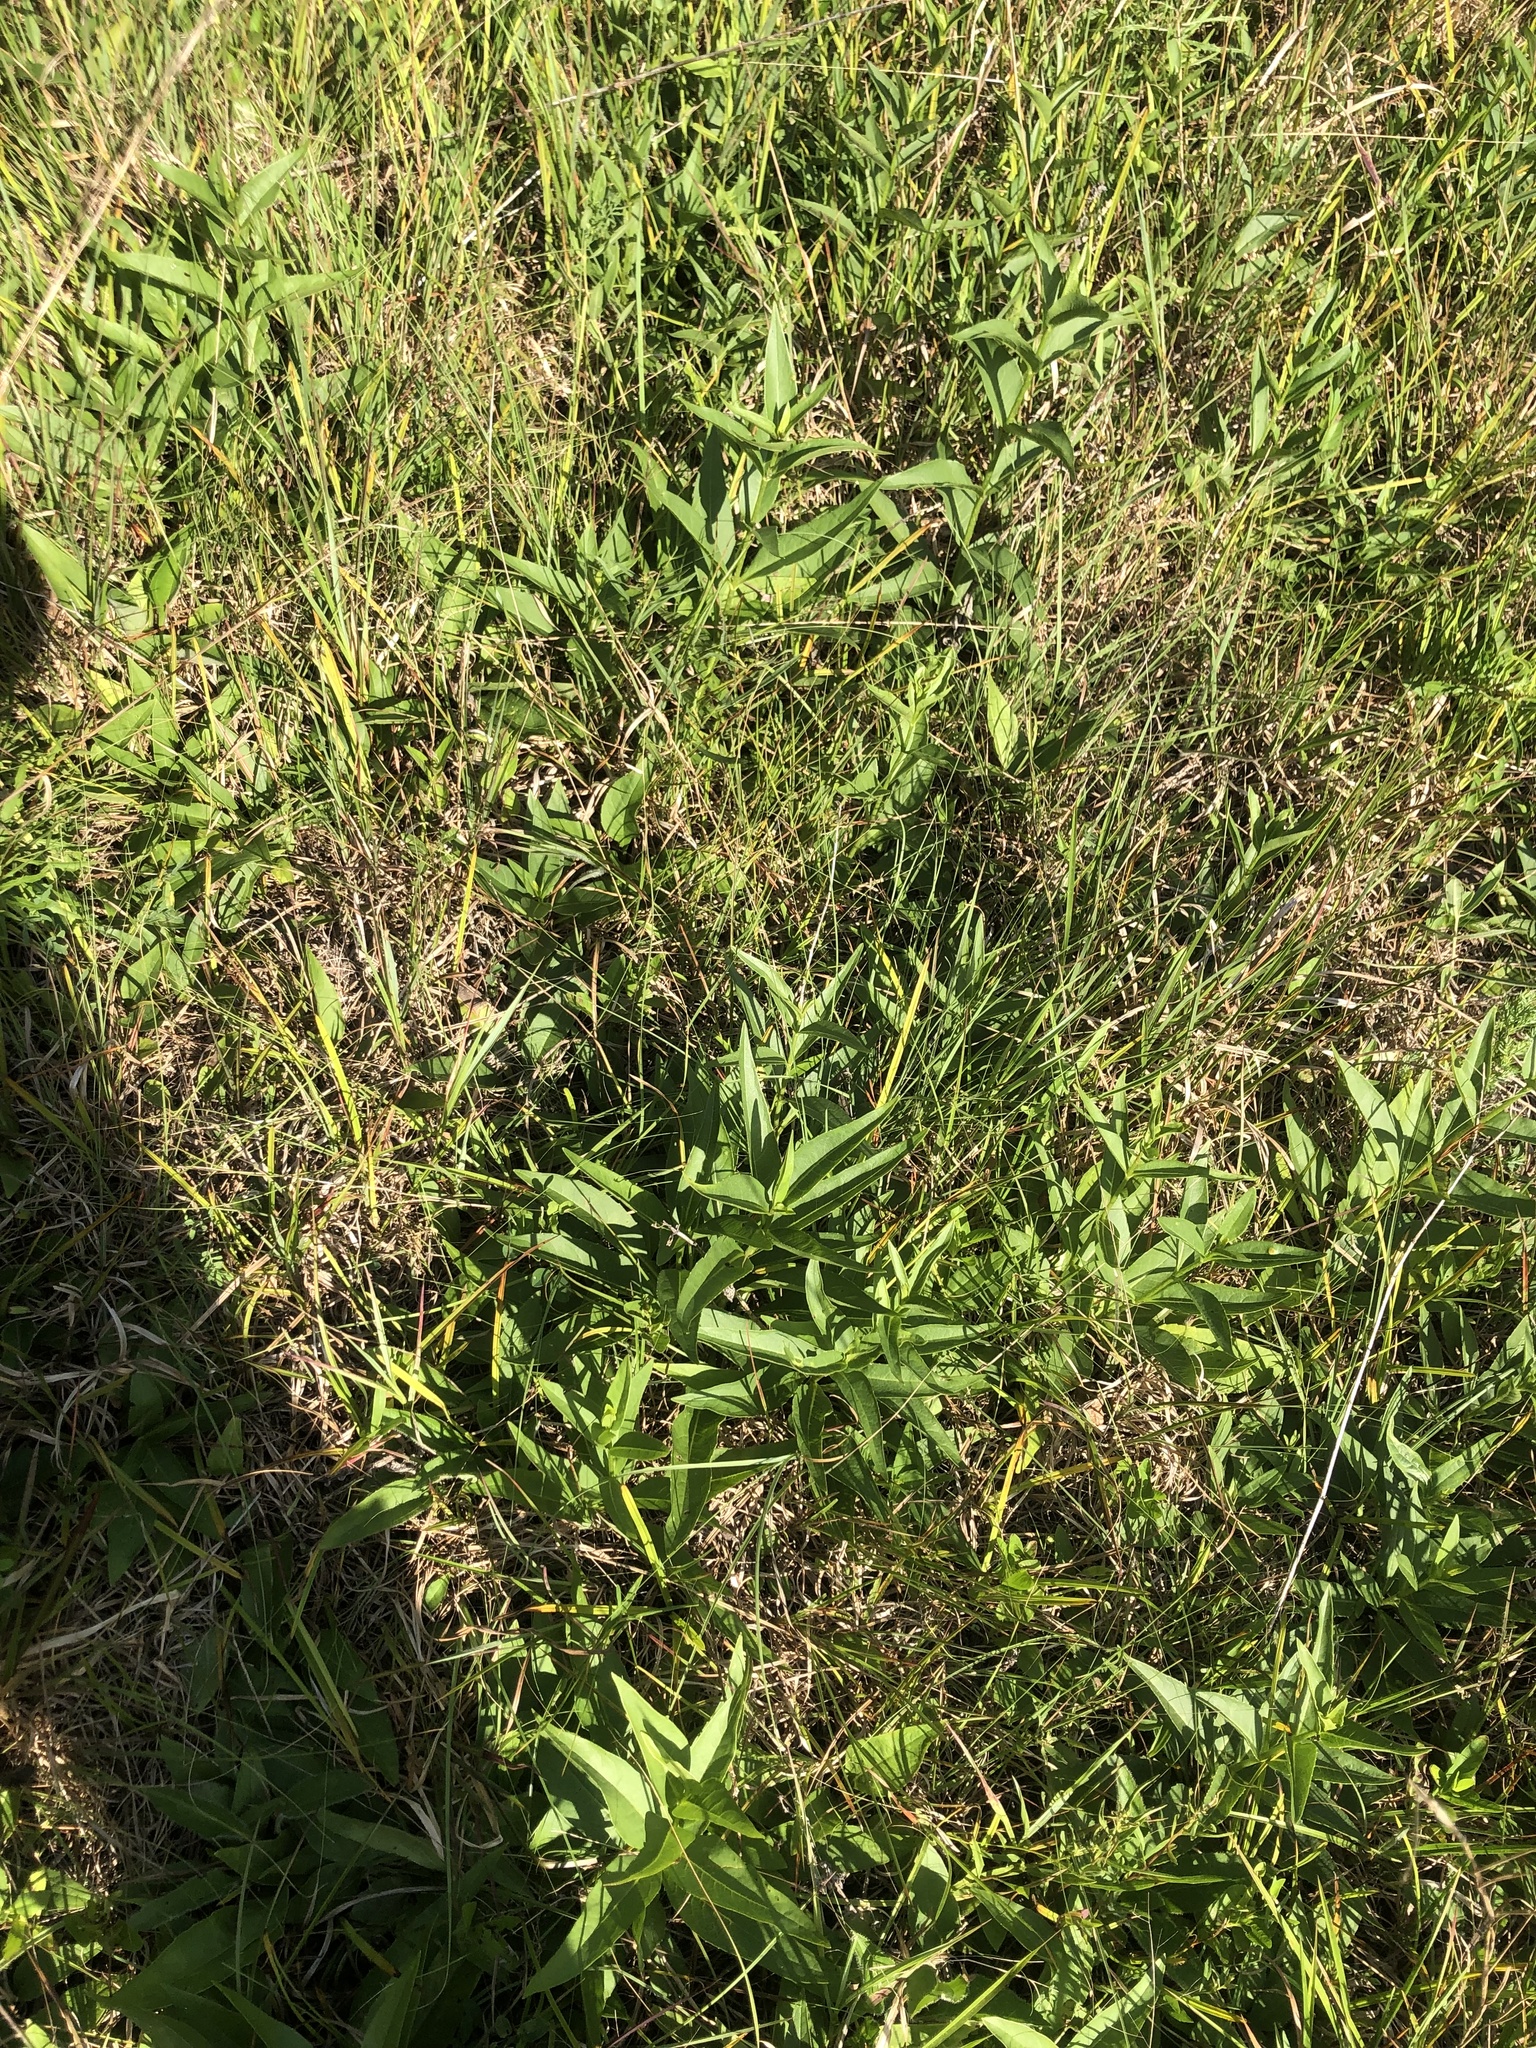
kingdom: Plantae
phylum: Tracheophyta
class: Magnoliopsida
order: Asterales
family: Asteraceae
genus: Silphium
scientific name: Silphium confertifolium
